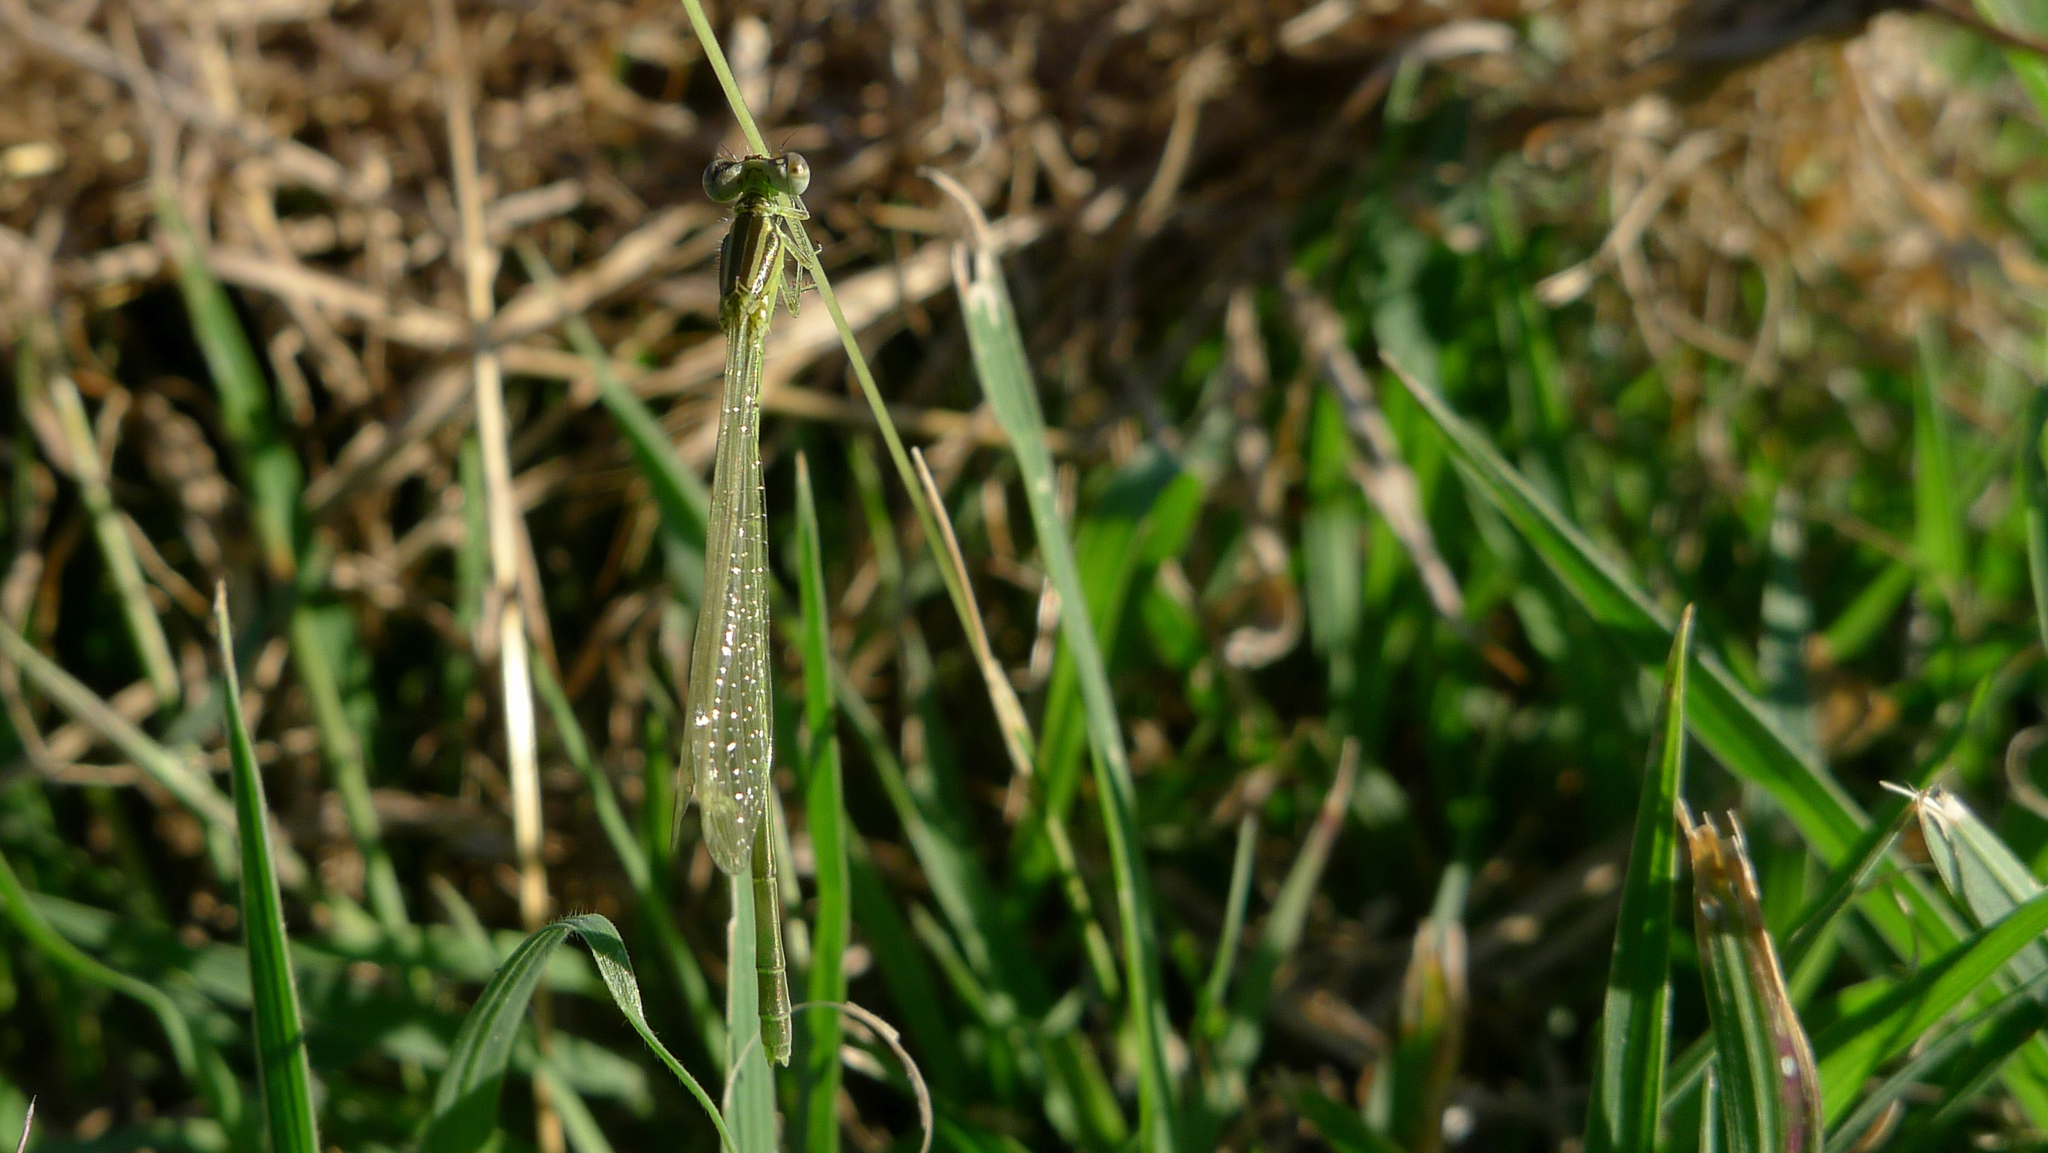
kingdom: Animalia
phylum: Arthropoda
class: Insecta
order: Odonata
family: Coenagrionidae
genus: Ischnura
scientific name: Ischnura aurora
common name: Gossamer damselfly
